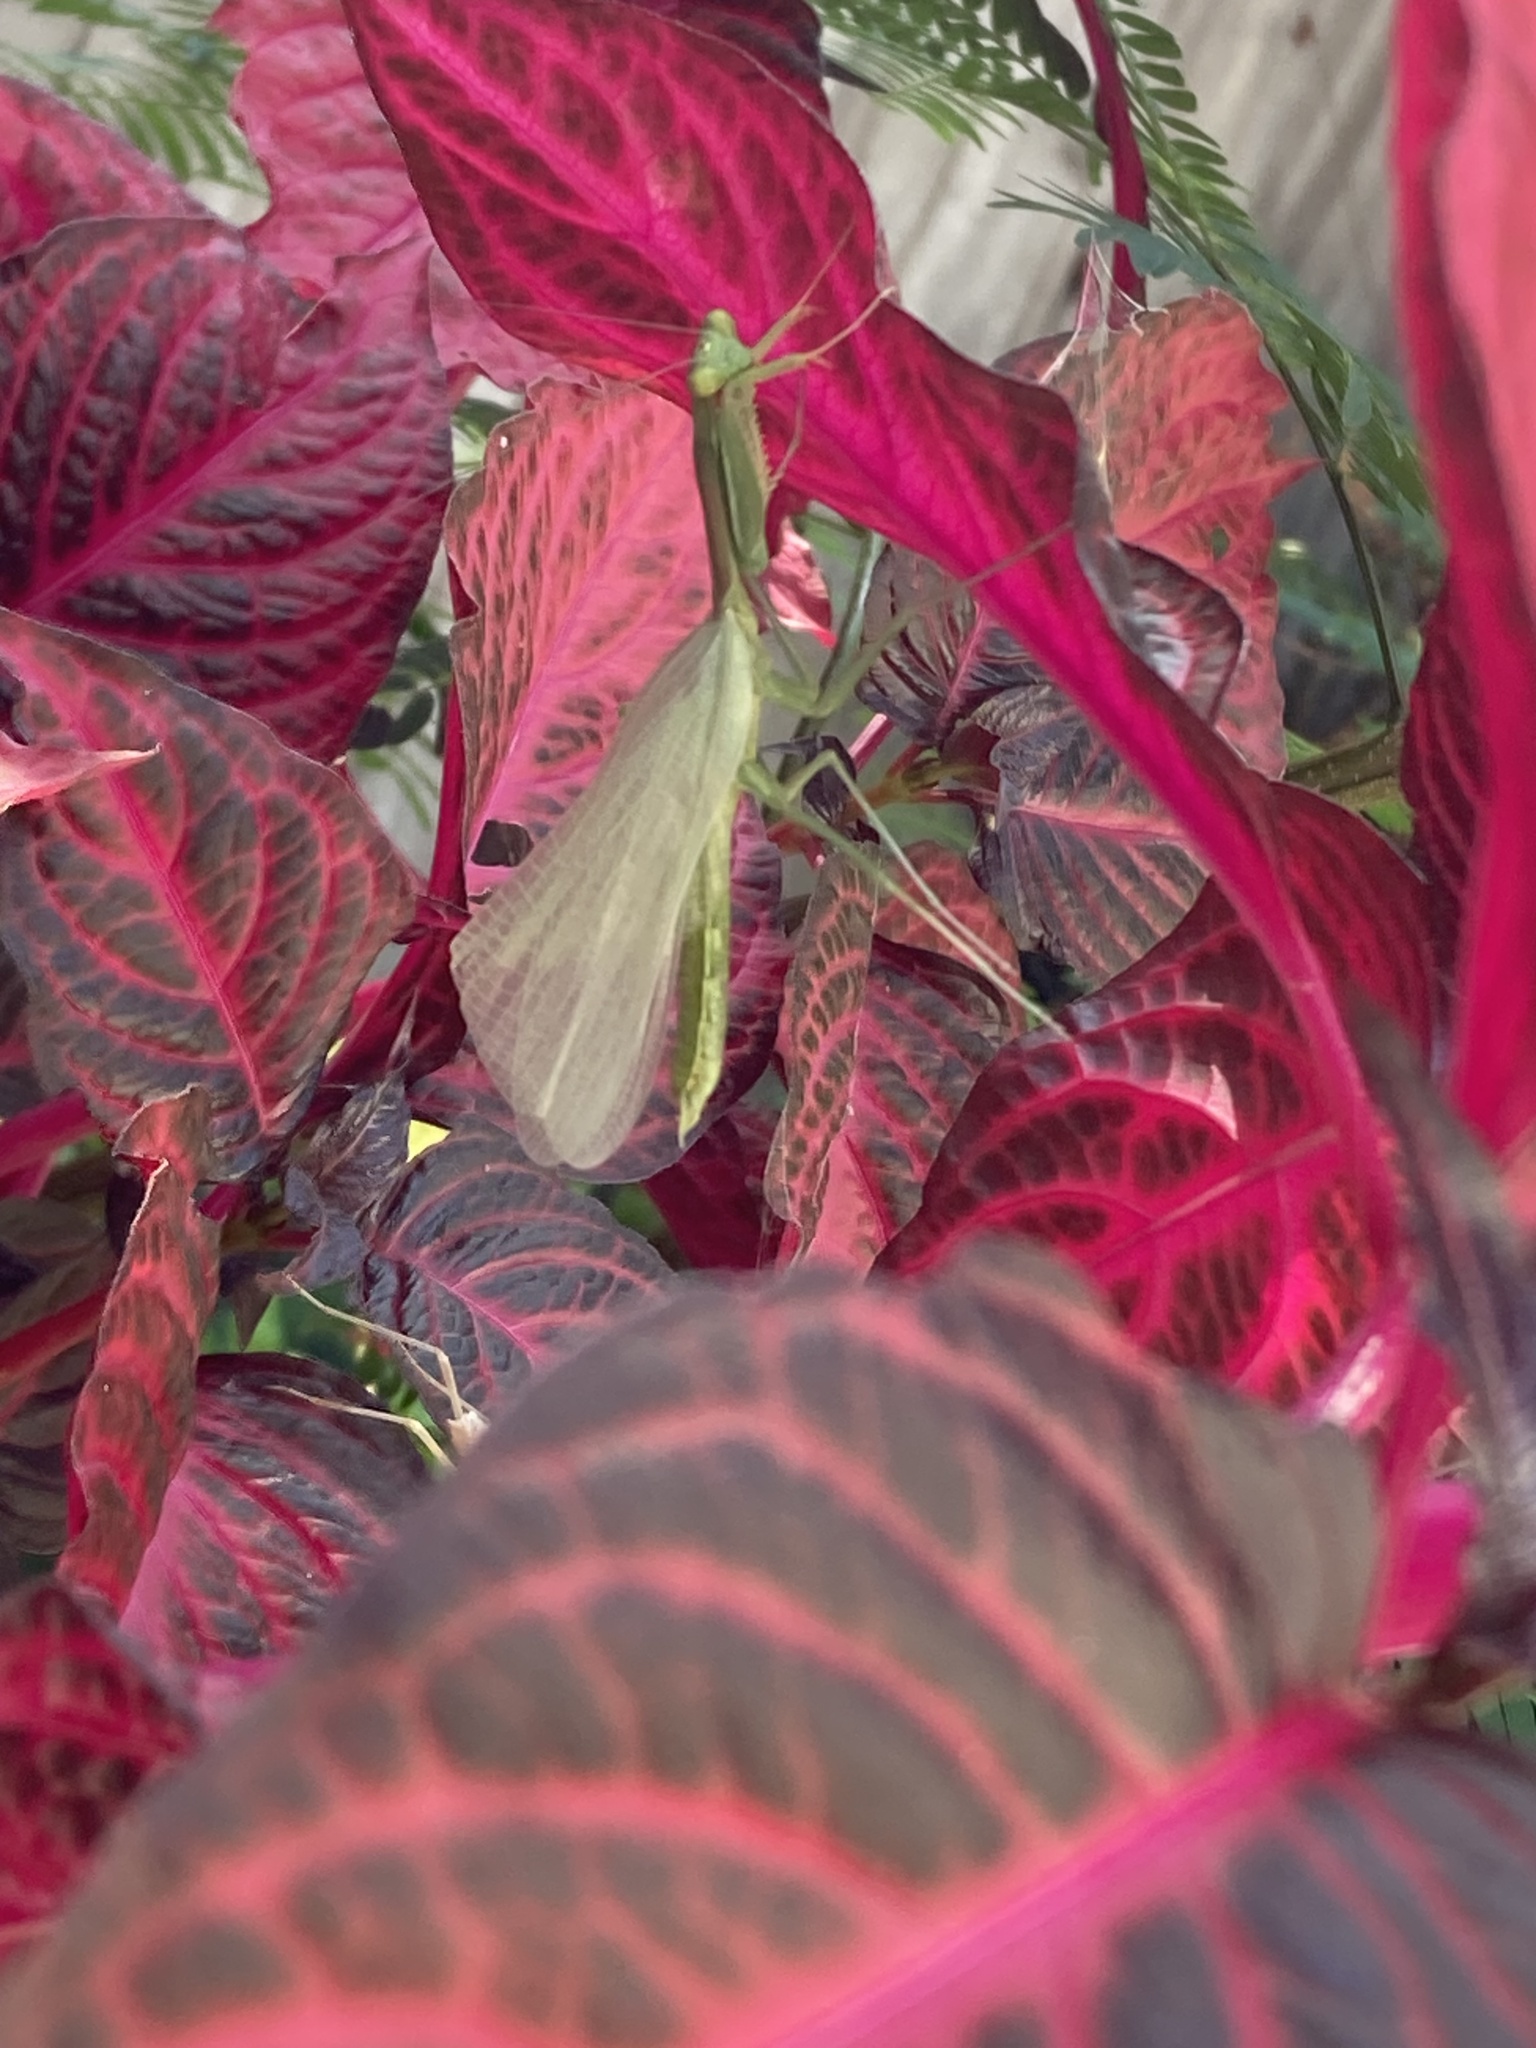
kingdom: Animalia
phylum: Arthropoda
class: Insecta
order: Mantodea
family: Mantidae
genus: Stagmomantis
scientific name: Stagmomantis limbata
